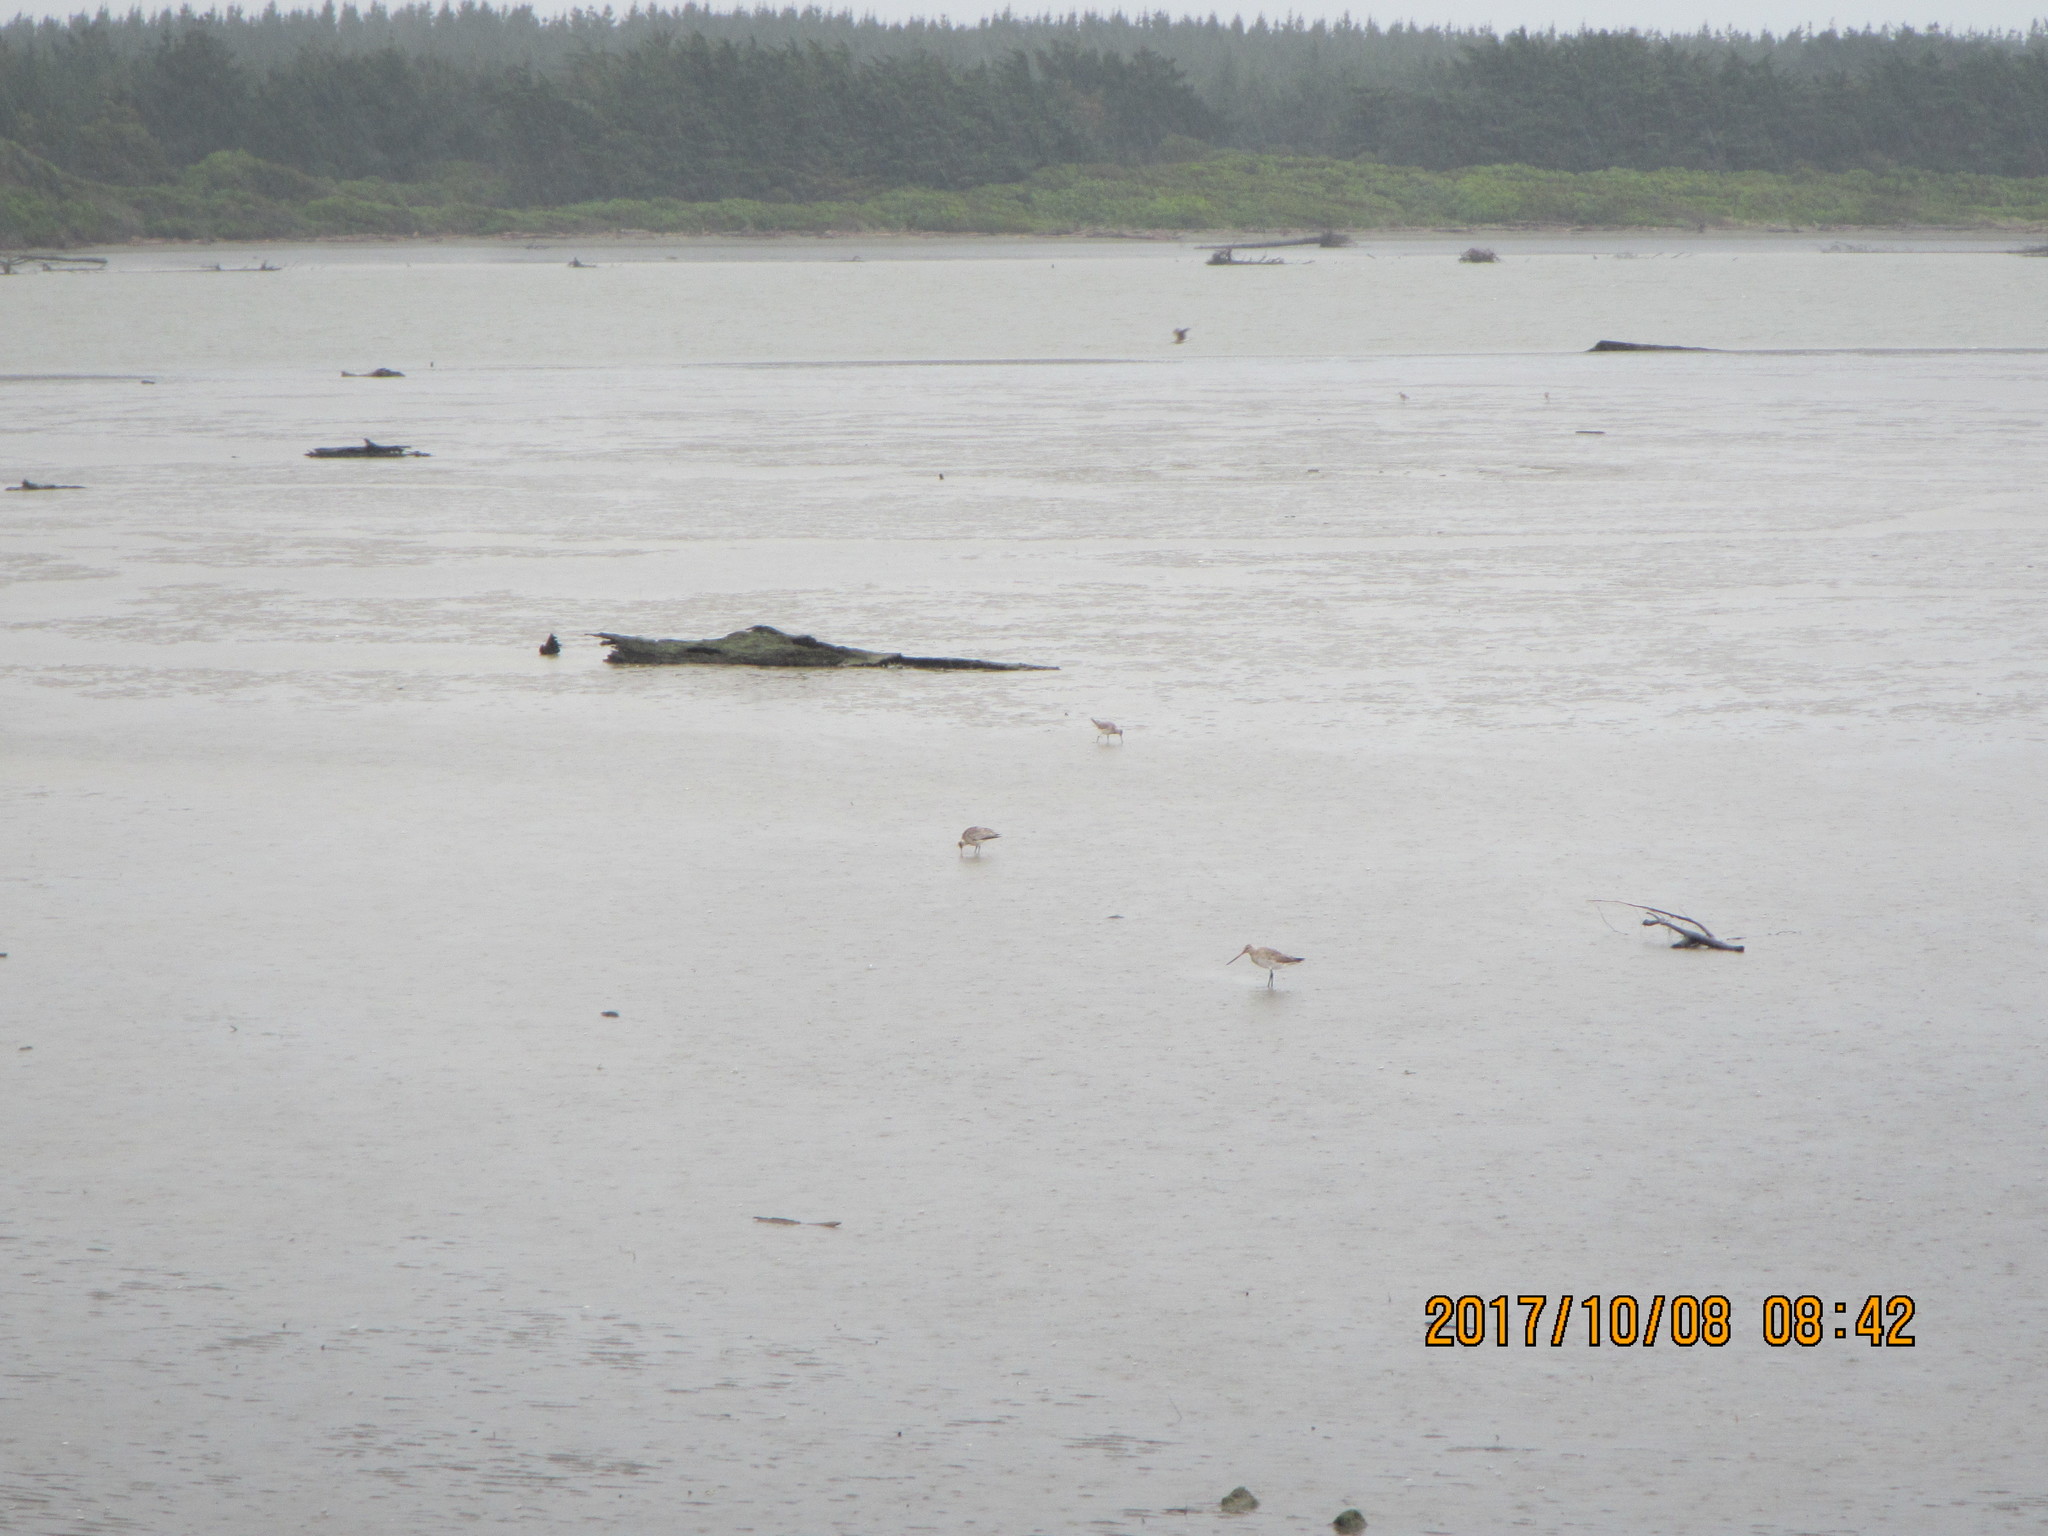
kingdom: Animalia
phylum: Chordata
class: Aves
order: Charadriiformes
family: Scolopacidae
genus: Limosa
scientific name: Limosa lapponica
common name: Bar-tailed godwit
